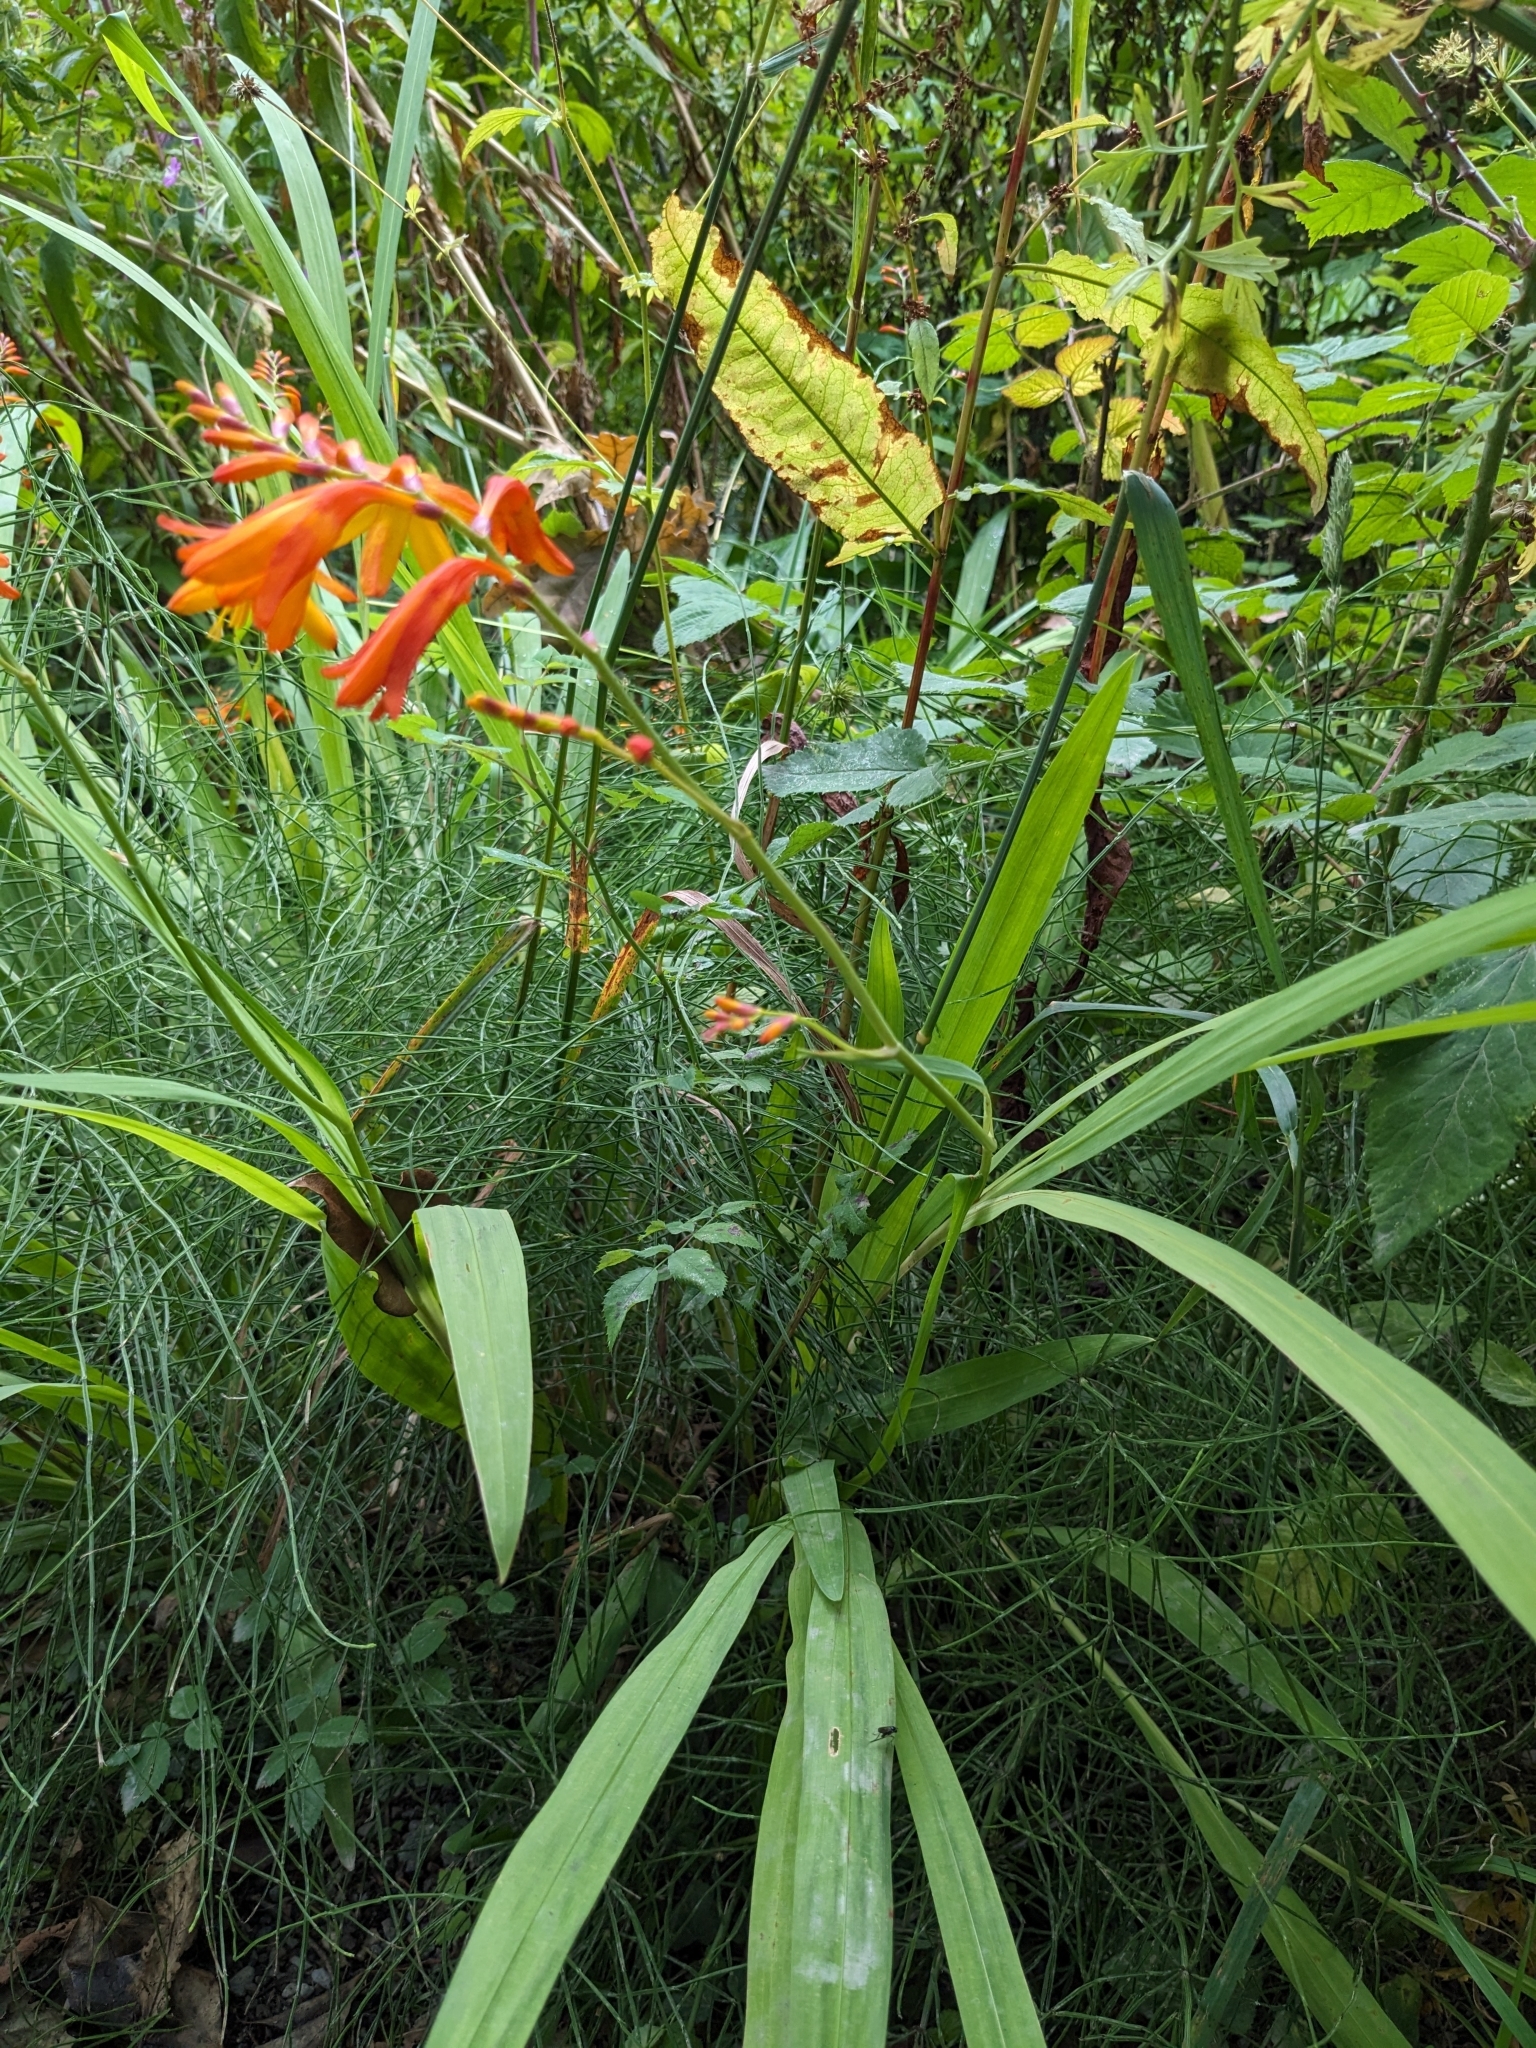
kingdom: Plantae
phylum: Tracheophyta
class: Liliopsida
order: Asparagales
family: Iridaceae
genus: Crocosmia
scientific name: Crocosmia crocosmiiflora
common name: Montbretia
